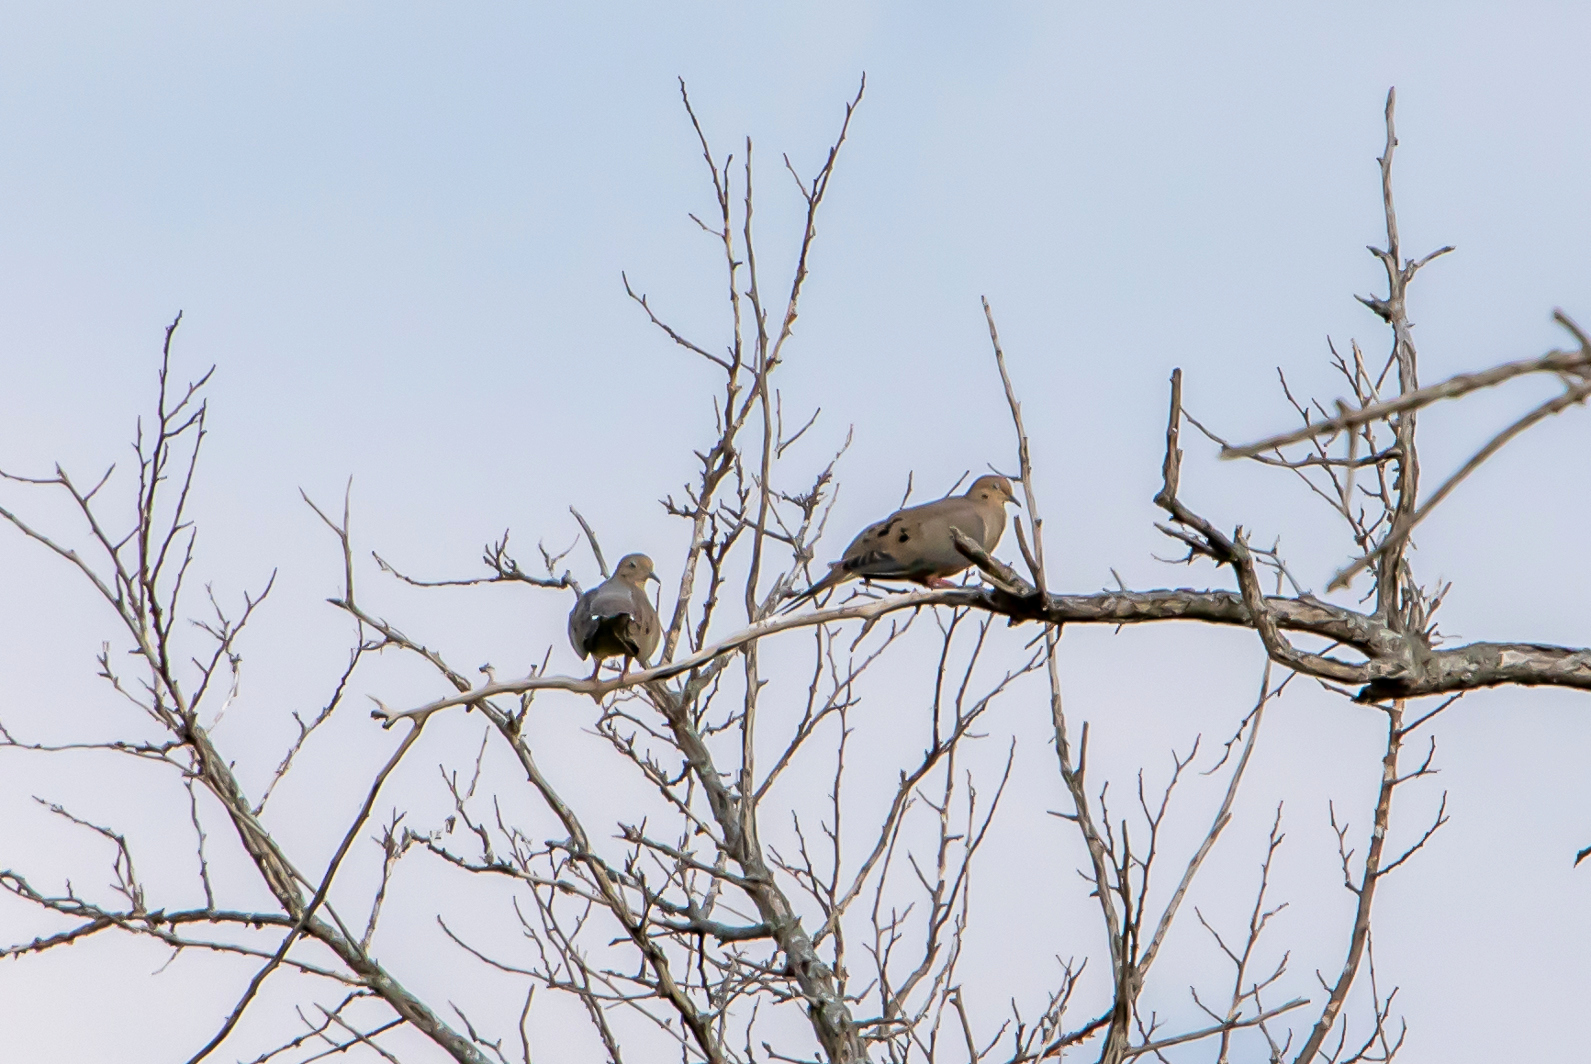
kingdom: Animalia
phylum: Chordata
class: Aves
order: Columbiformes
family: Columbidae
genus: Zenaida
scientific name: Zenaida macroura
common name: Mourning dove
